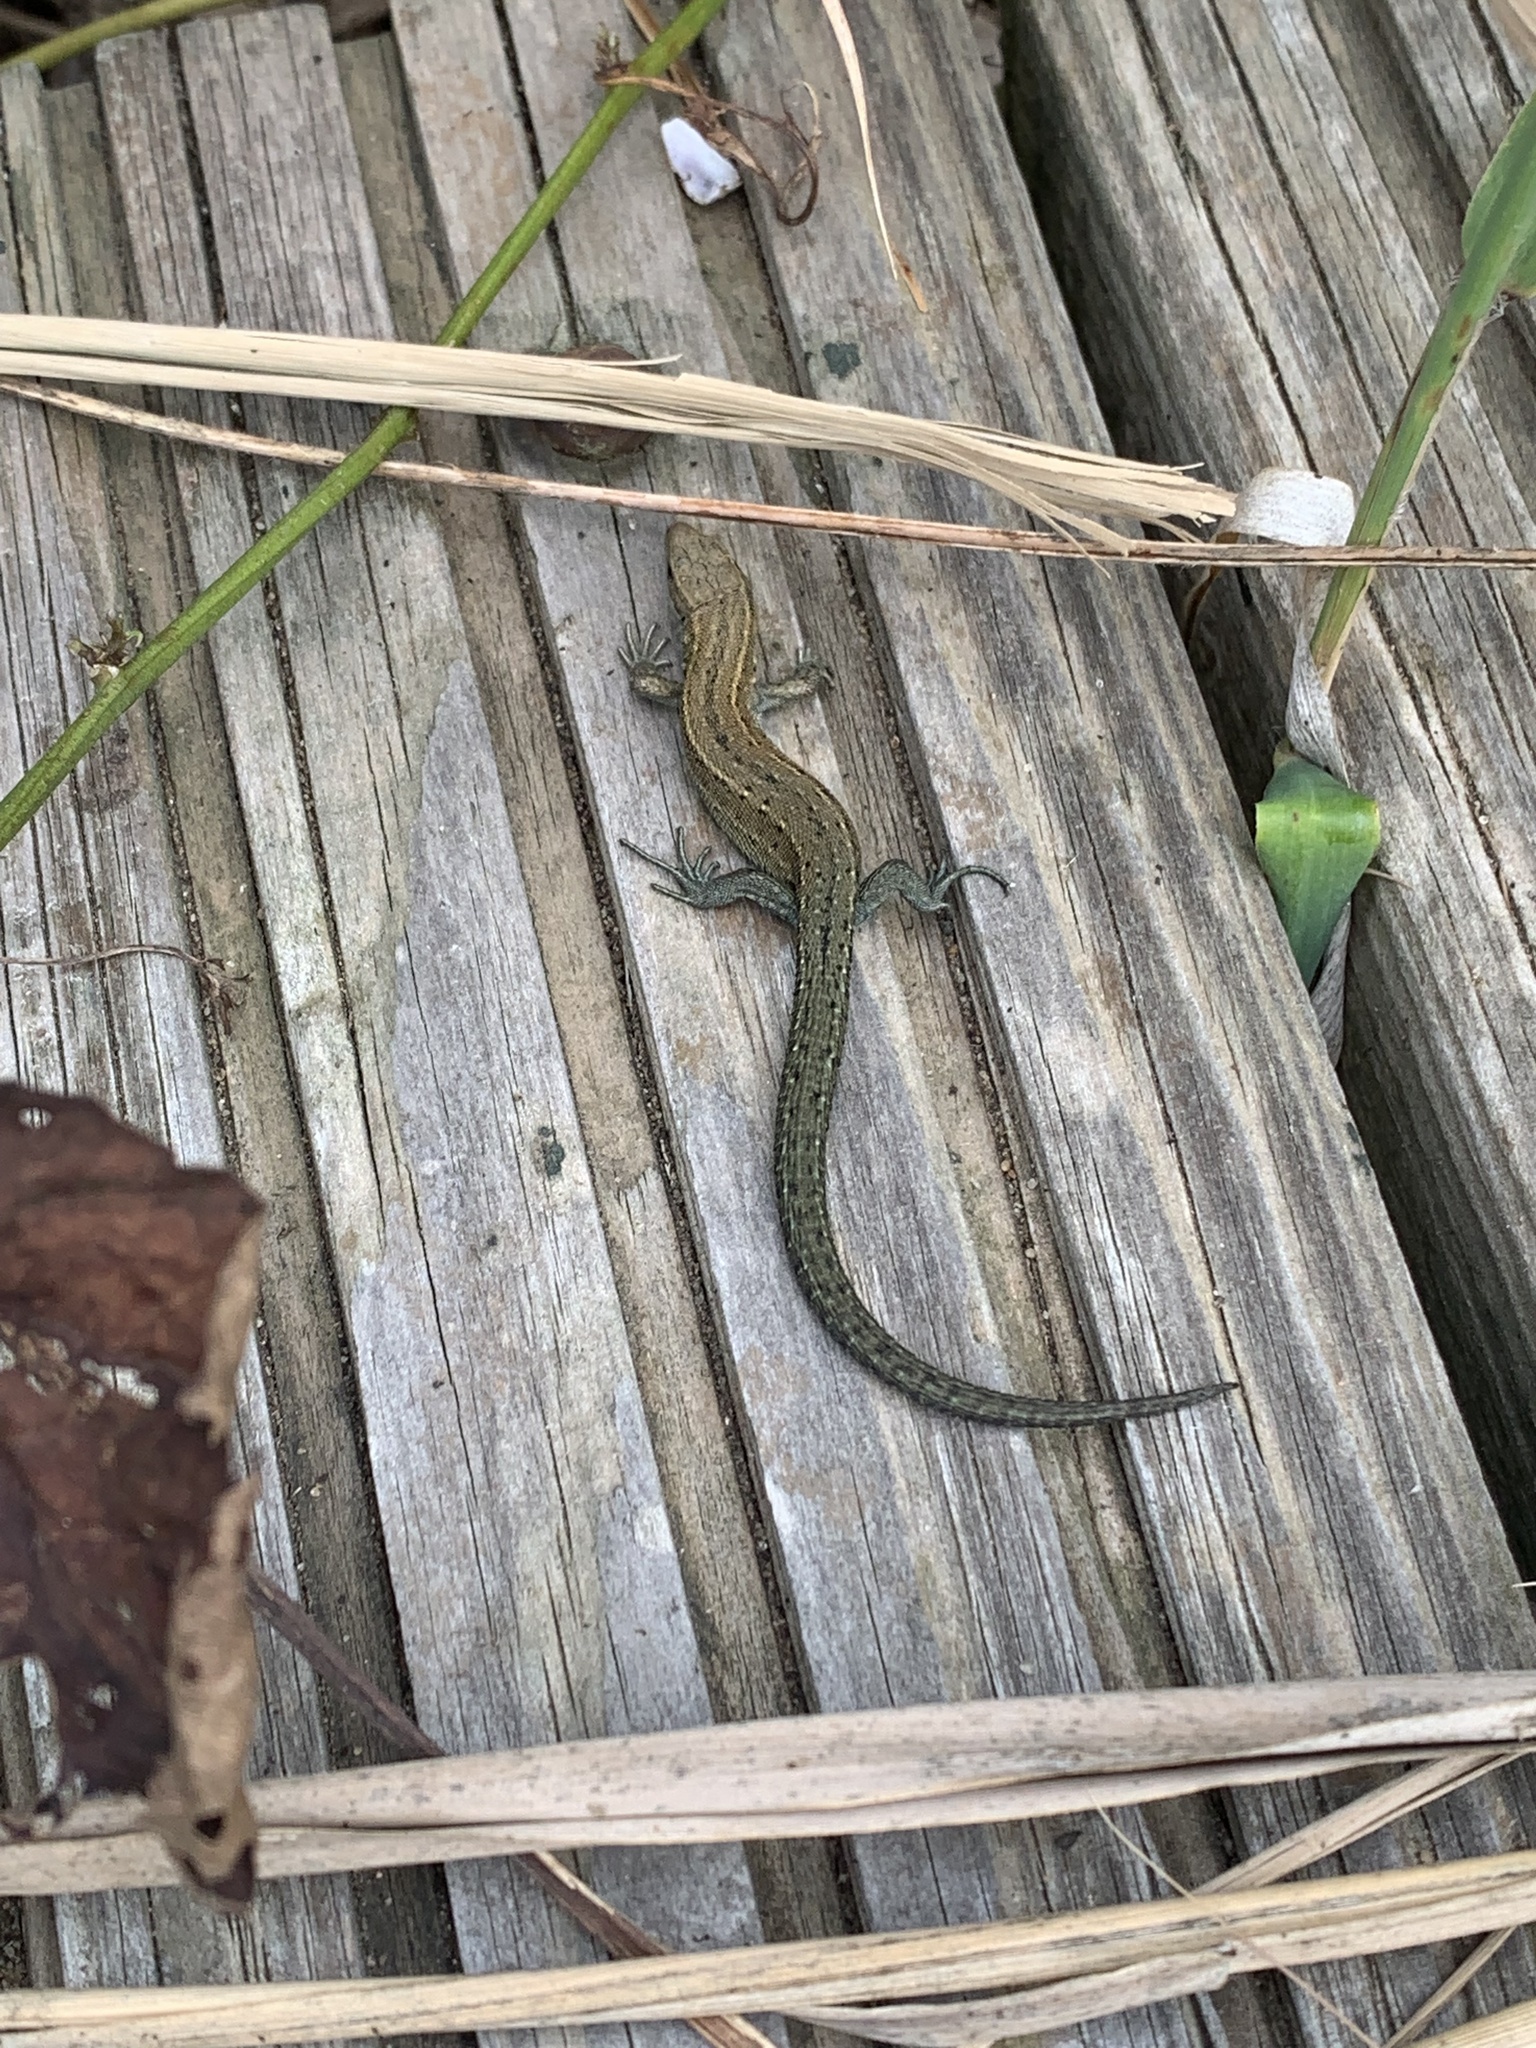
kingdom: Animalia
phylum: Chordata
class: Squamata
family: Lacertidae
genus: Zootoca
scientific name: Zootoca vivipara
